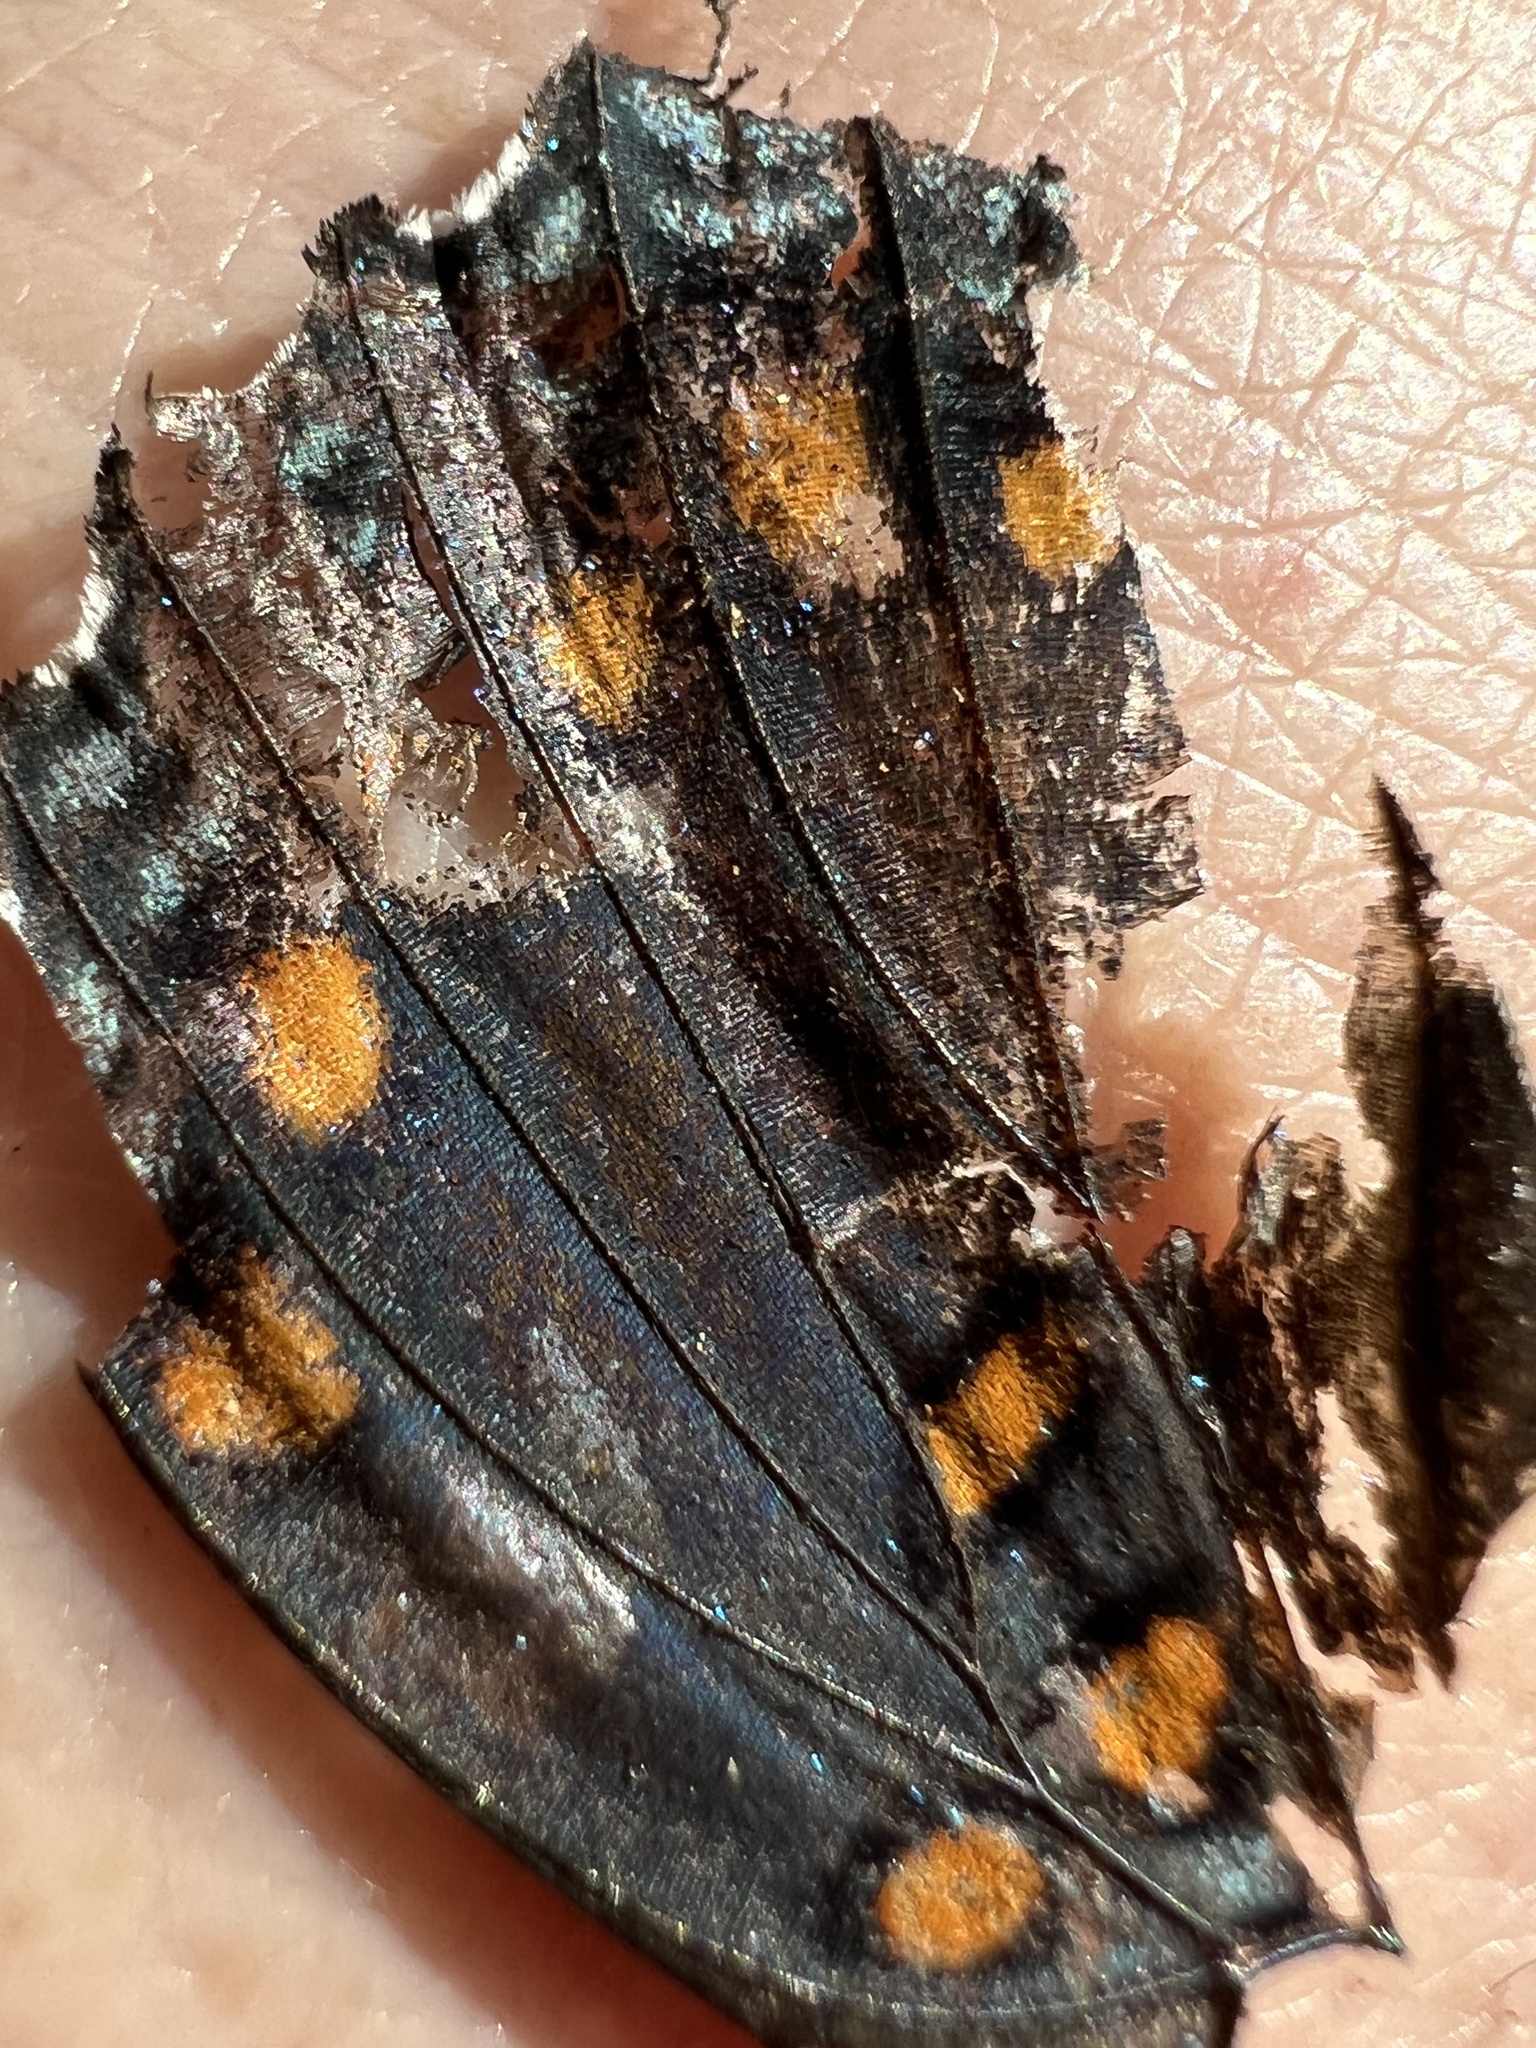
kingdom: Animalia
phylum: Arthropoda
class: Insecta
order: Lepidoptera
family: Nymphalidae
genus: Limenitis
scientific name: Limenitis arthemis
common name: Red-spotted admiral
